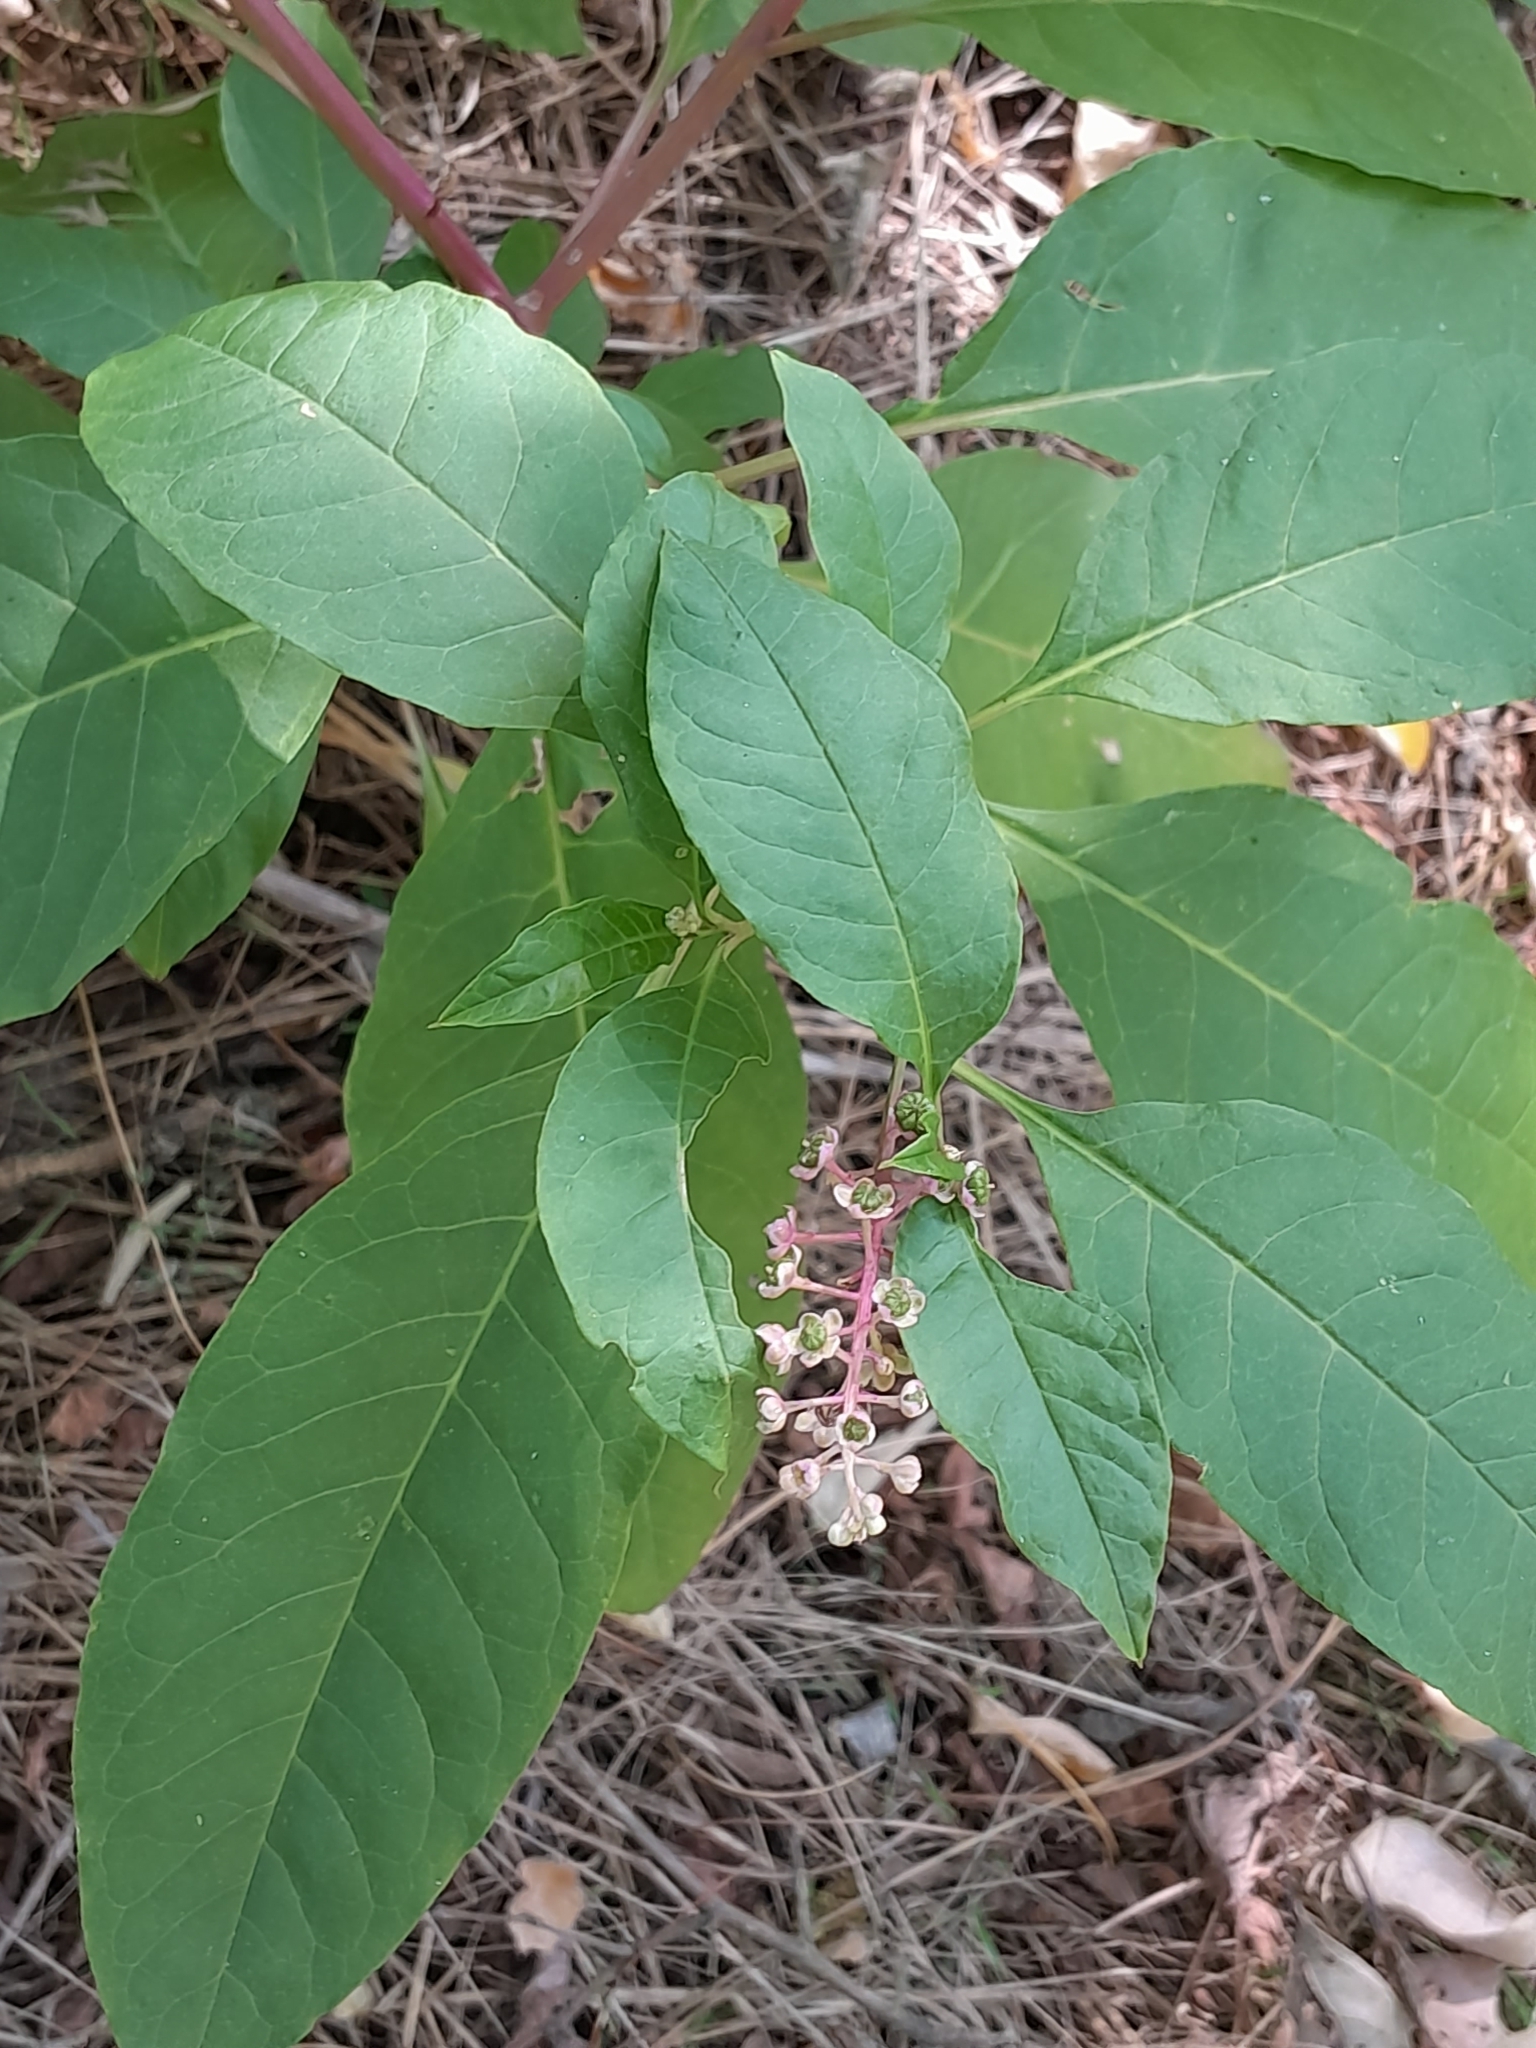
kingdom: Plantae
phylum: Tracheophyta
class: Magnoliopsida
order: Caryophyllales
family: Phytolaccaceae
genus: Phytolacca
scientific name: Phytolacca americana
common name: American pokeweed
